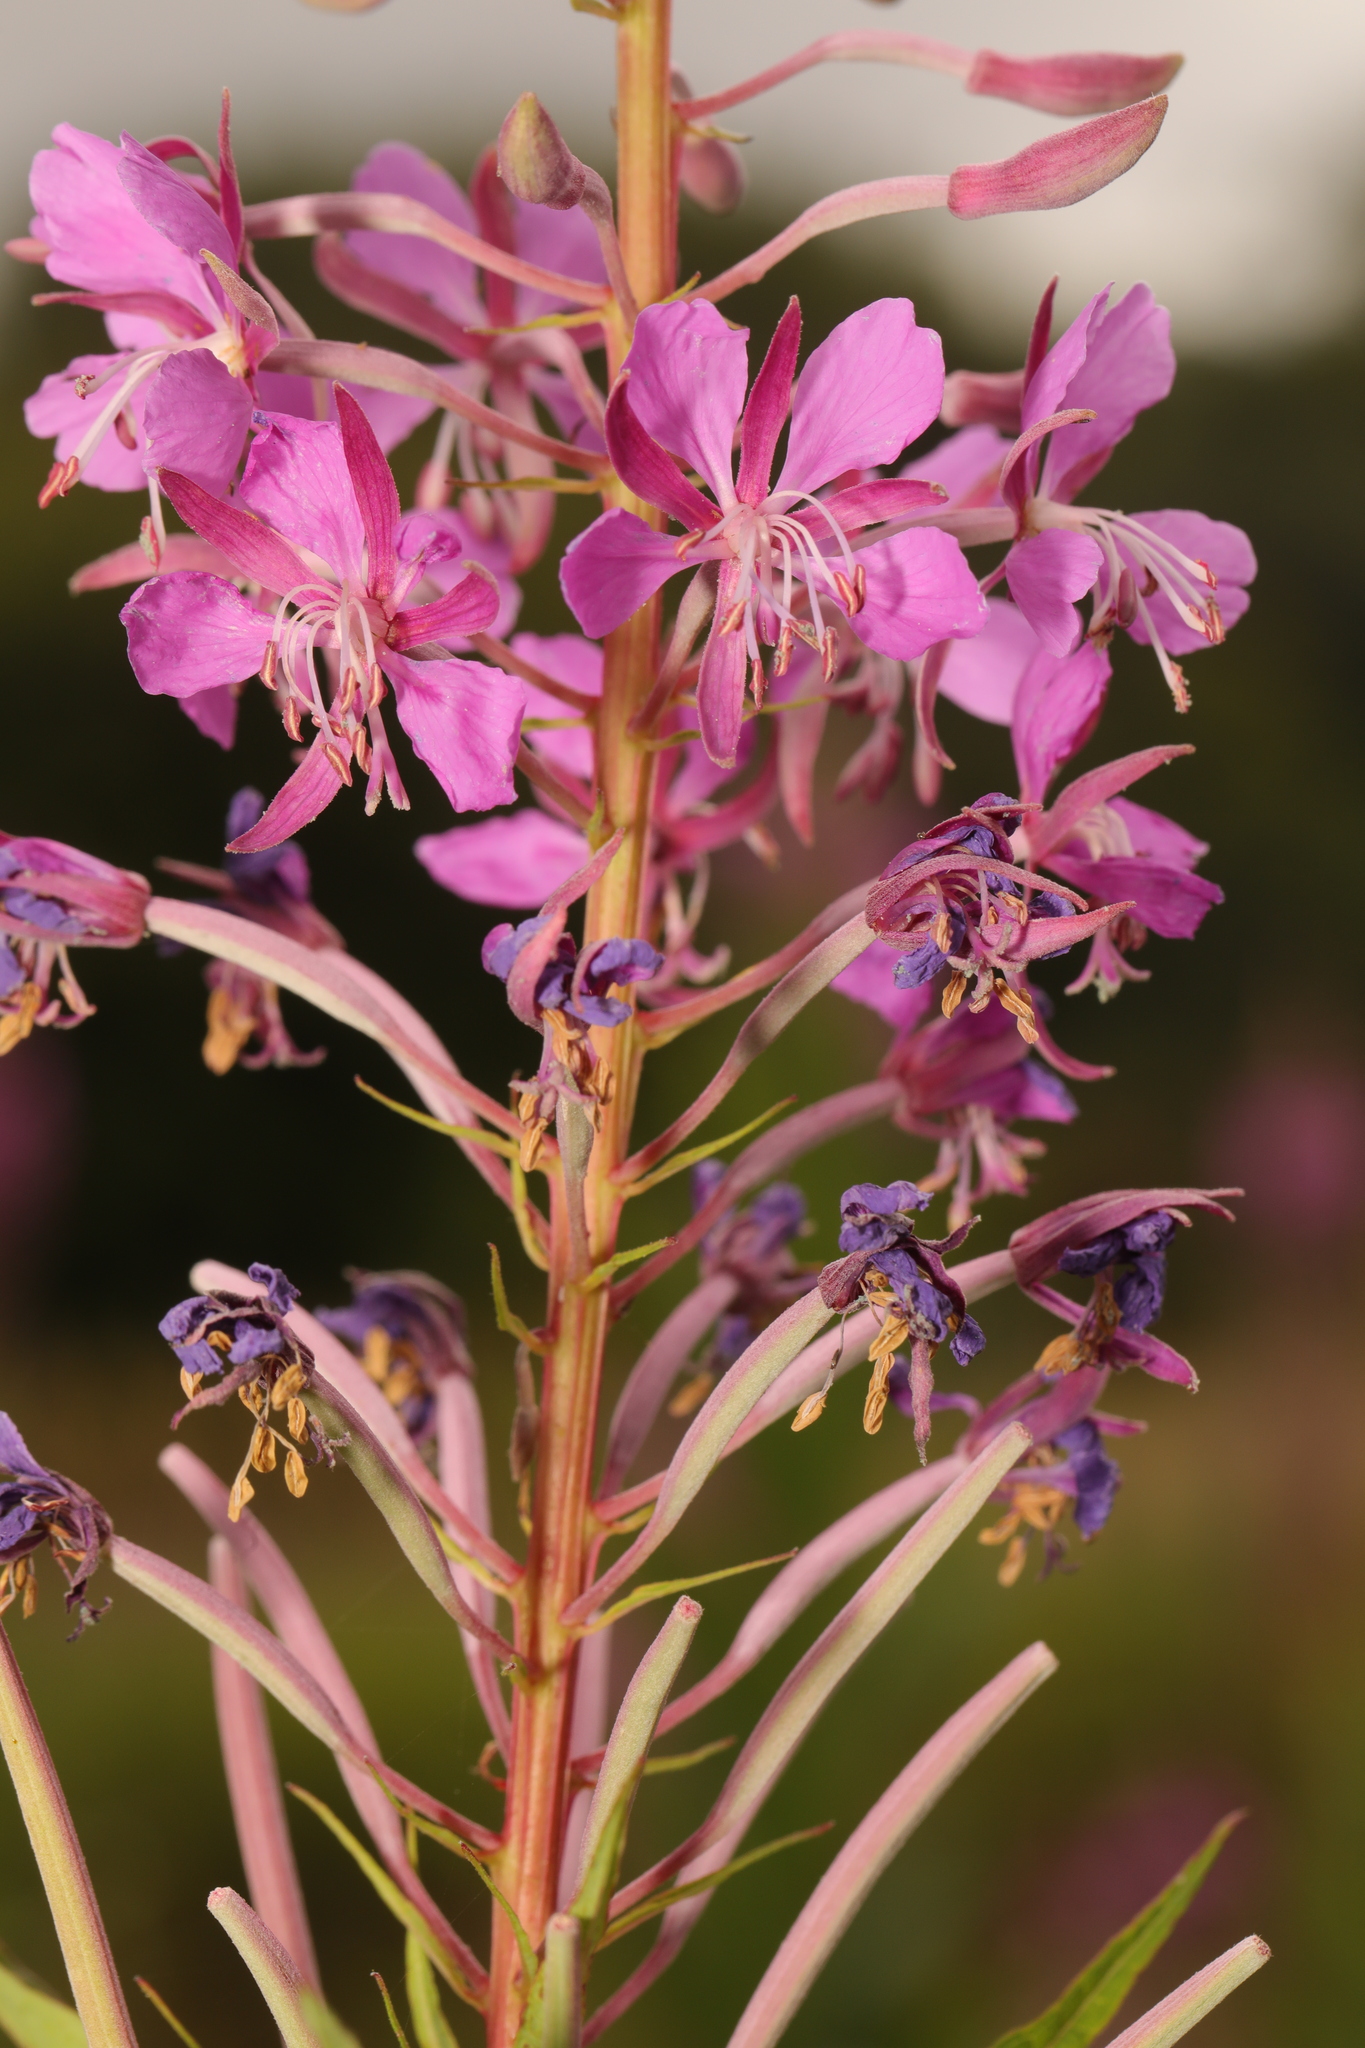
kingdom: Plantae
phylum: Tracheophyta
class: Magnoliopsida
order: Myrtales
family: Onagraceae
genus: Chamaenerion
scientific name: Chamaenerion angustifolium
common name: Fireweed
